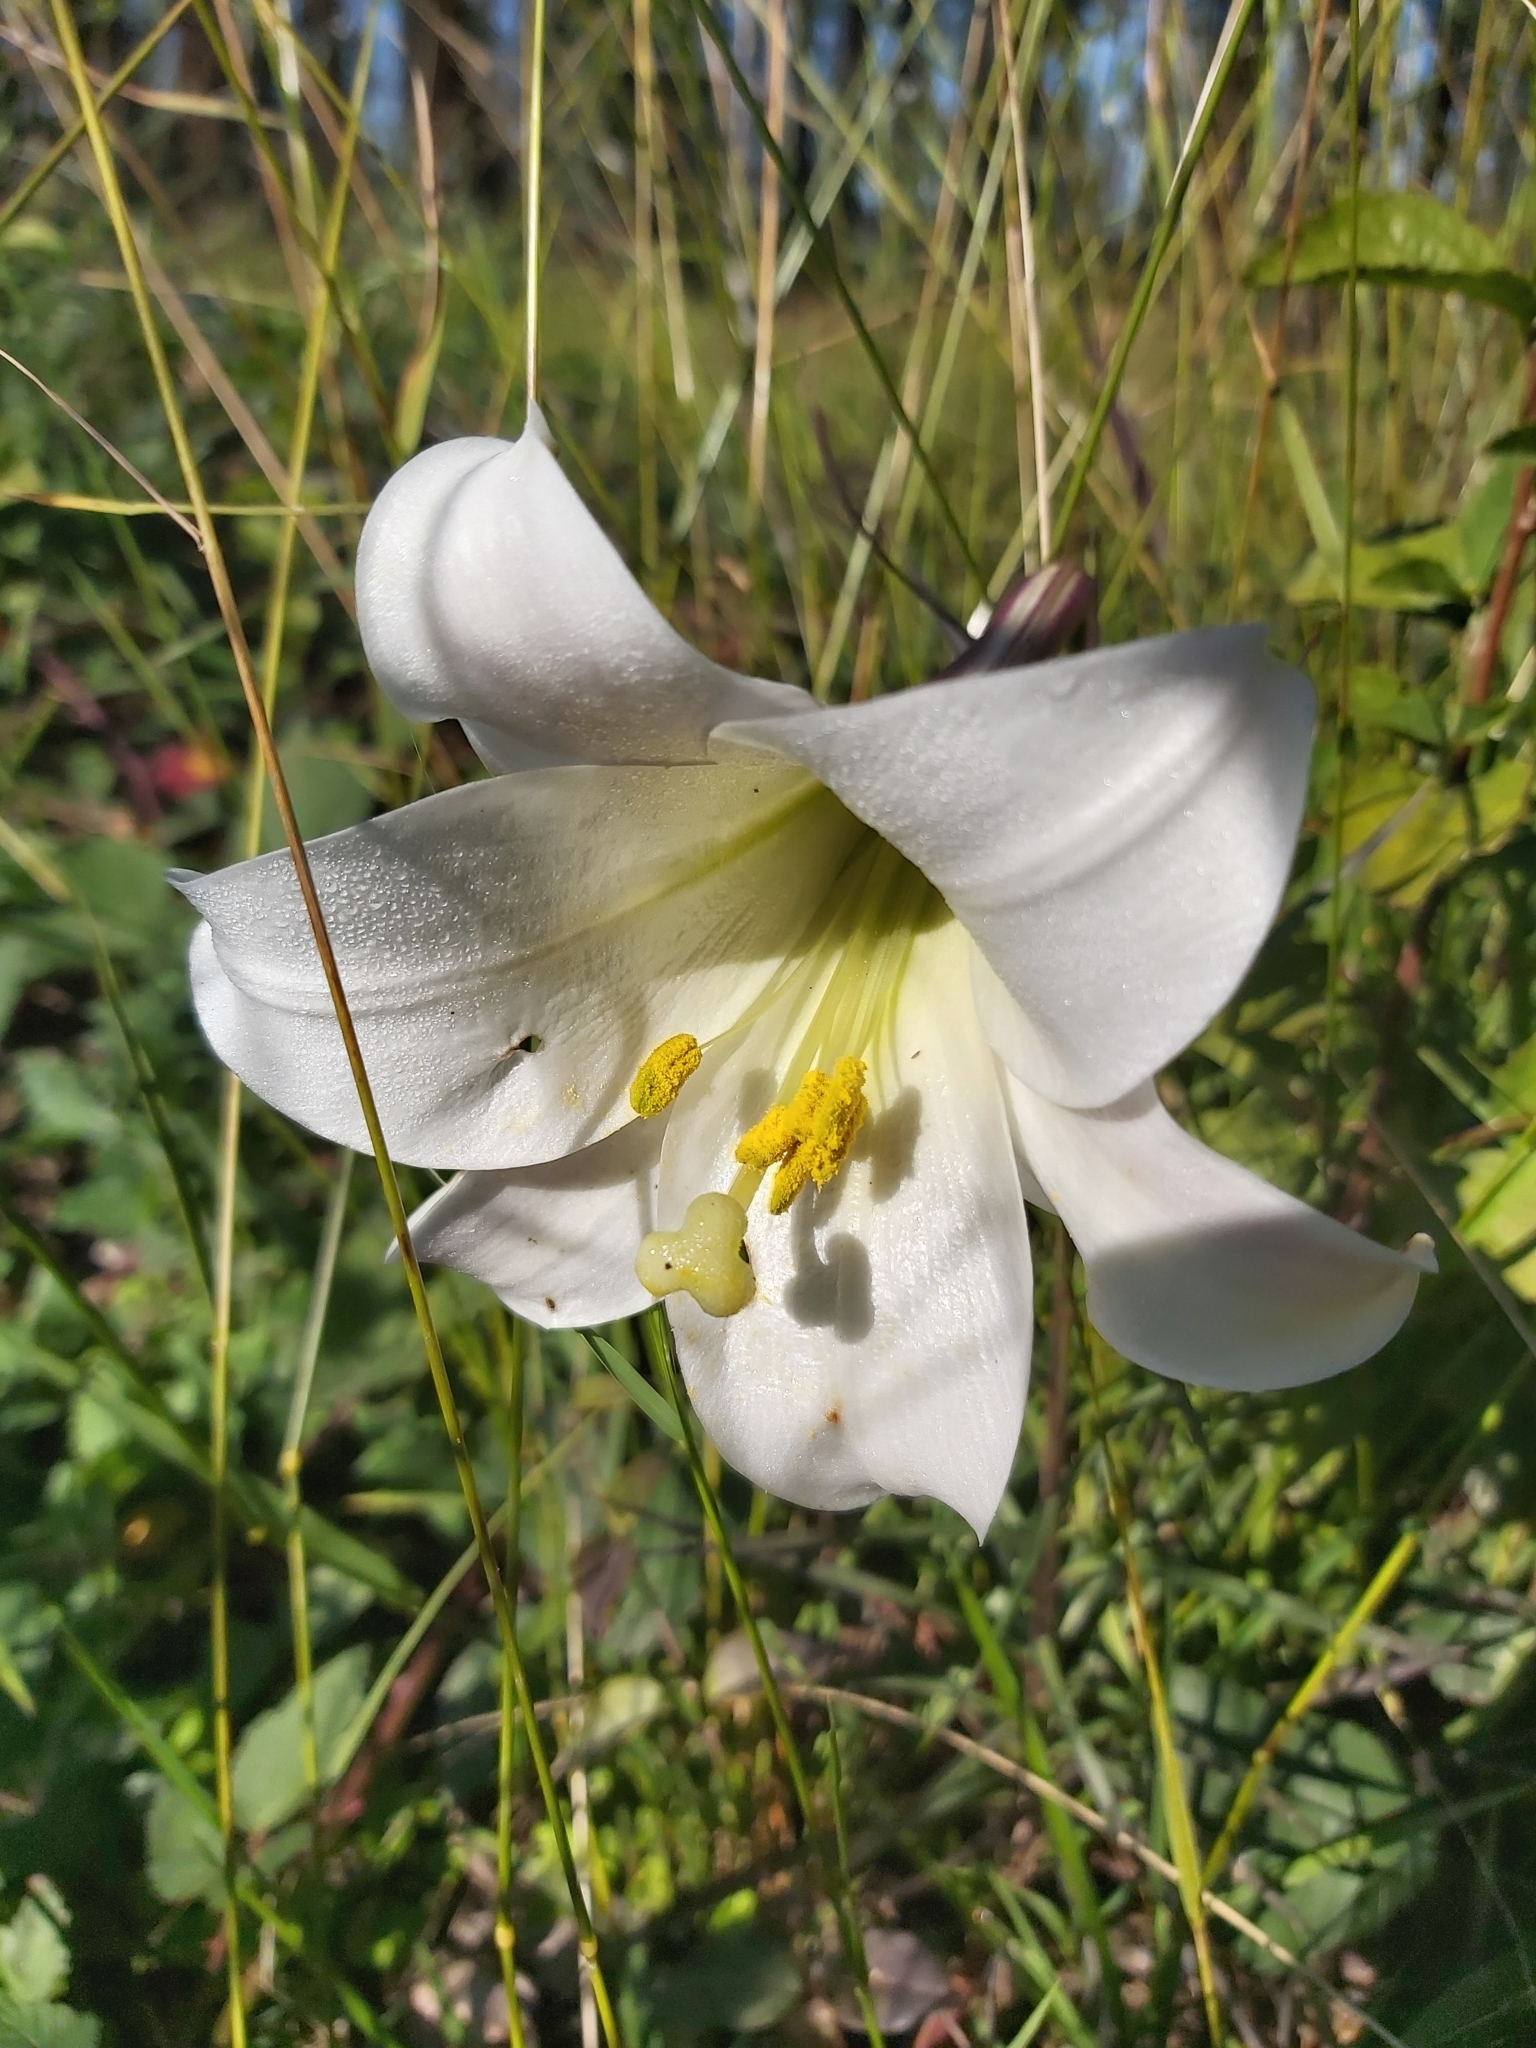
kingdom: Plantae
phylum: Tracheophyta
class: Liliopsida
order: Liliales
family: Liliaceae
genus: Lilium
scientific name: Lilium formosanum
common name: Formosa lily
